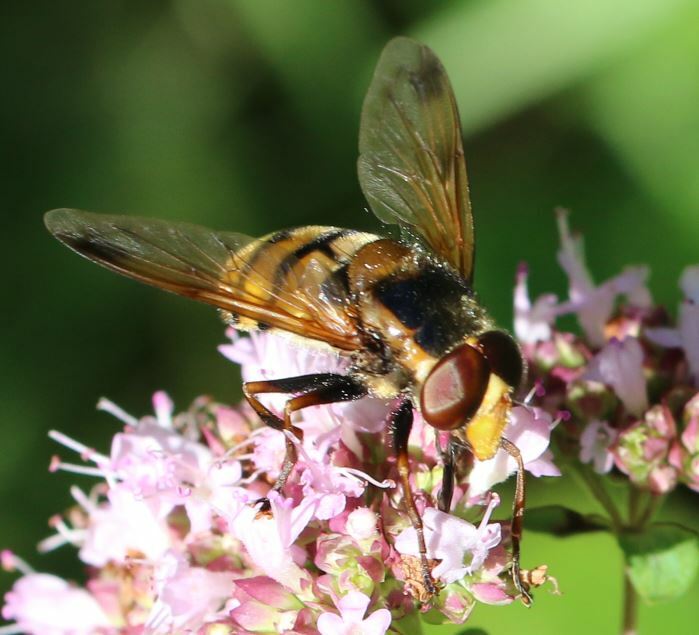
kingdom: Animalia
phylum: Arthropoda
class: Insecta
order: Diptera
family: Syrphidae
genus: Volucella
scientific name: Volucella inanis
